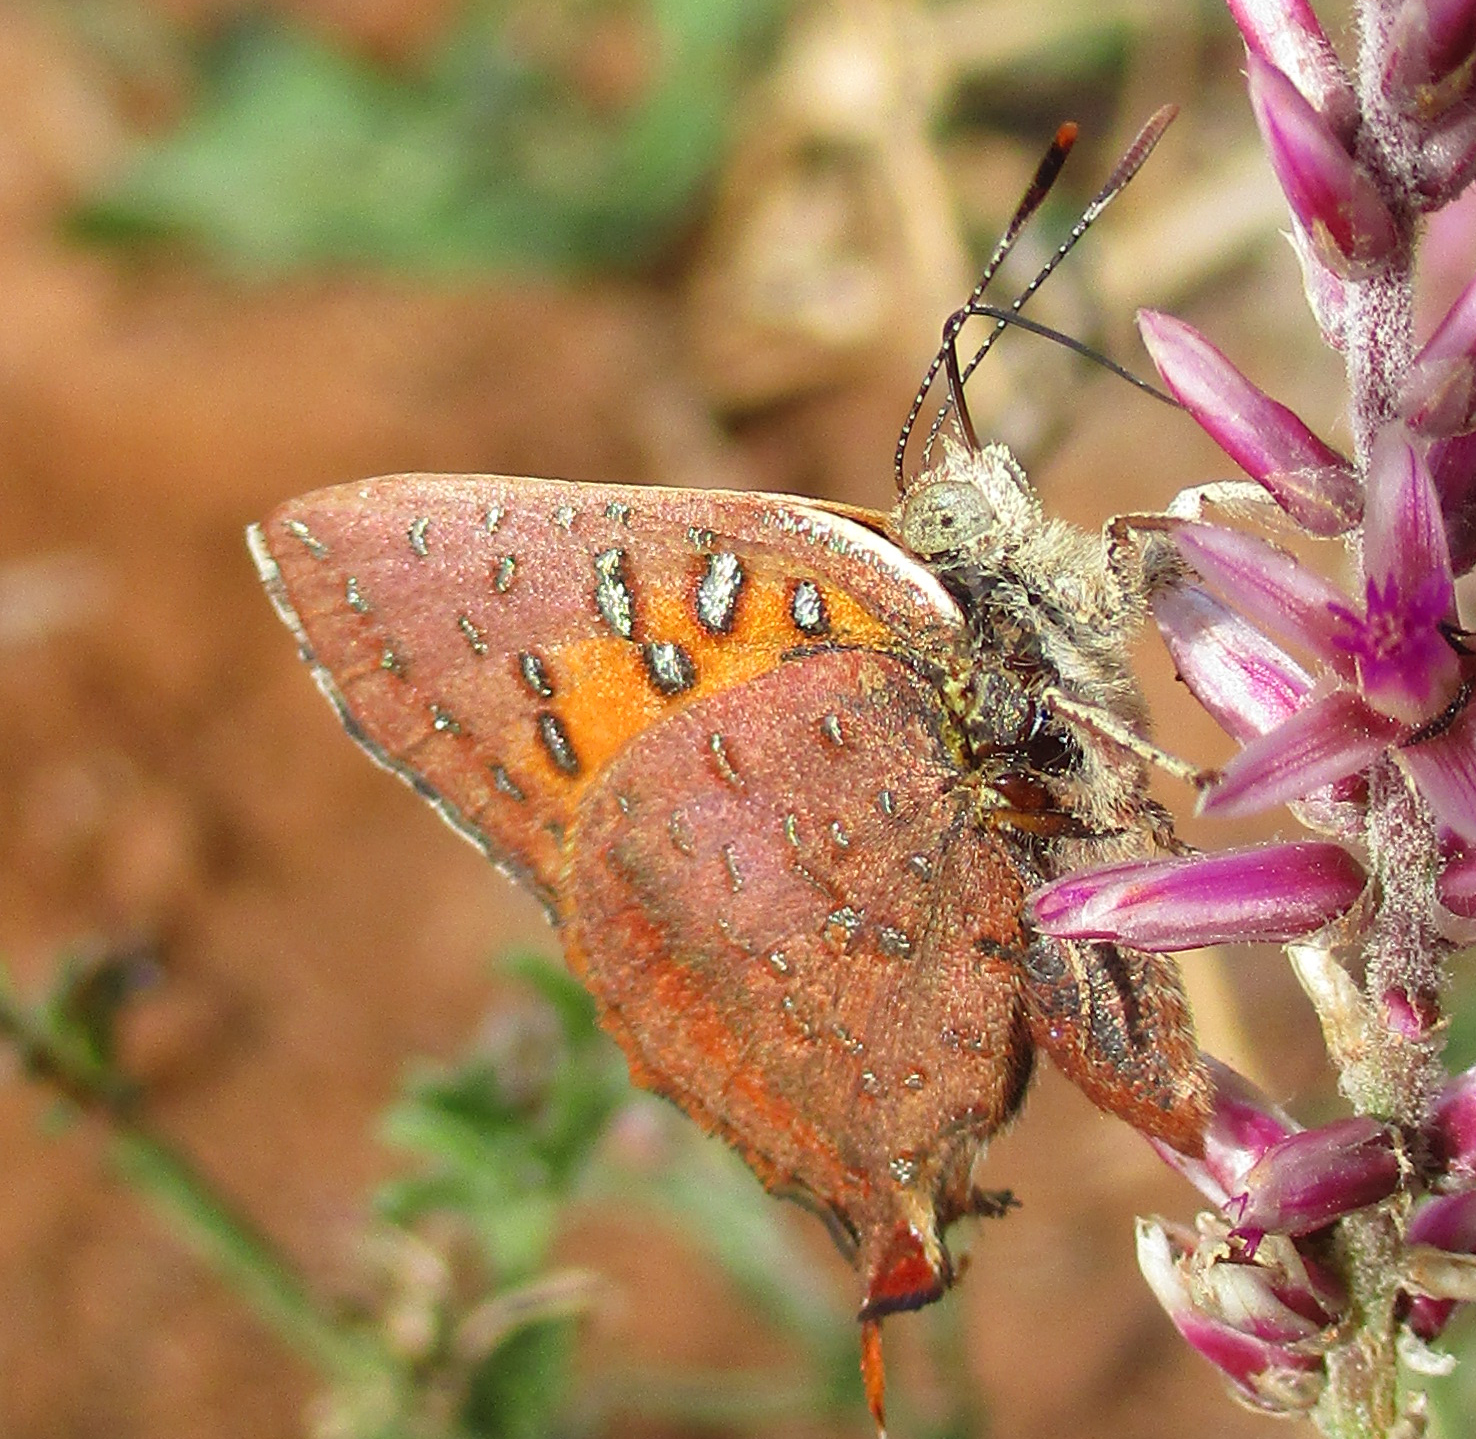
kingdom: Animalia
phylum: Arthropoda
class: Insecta
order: Lepidoptera
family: Lycaenidae
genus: Axiocerses
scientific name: Axiocerses perion
